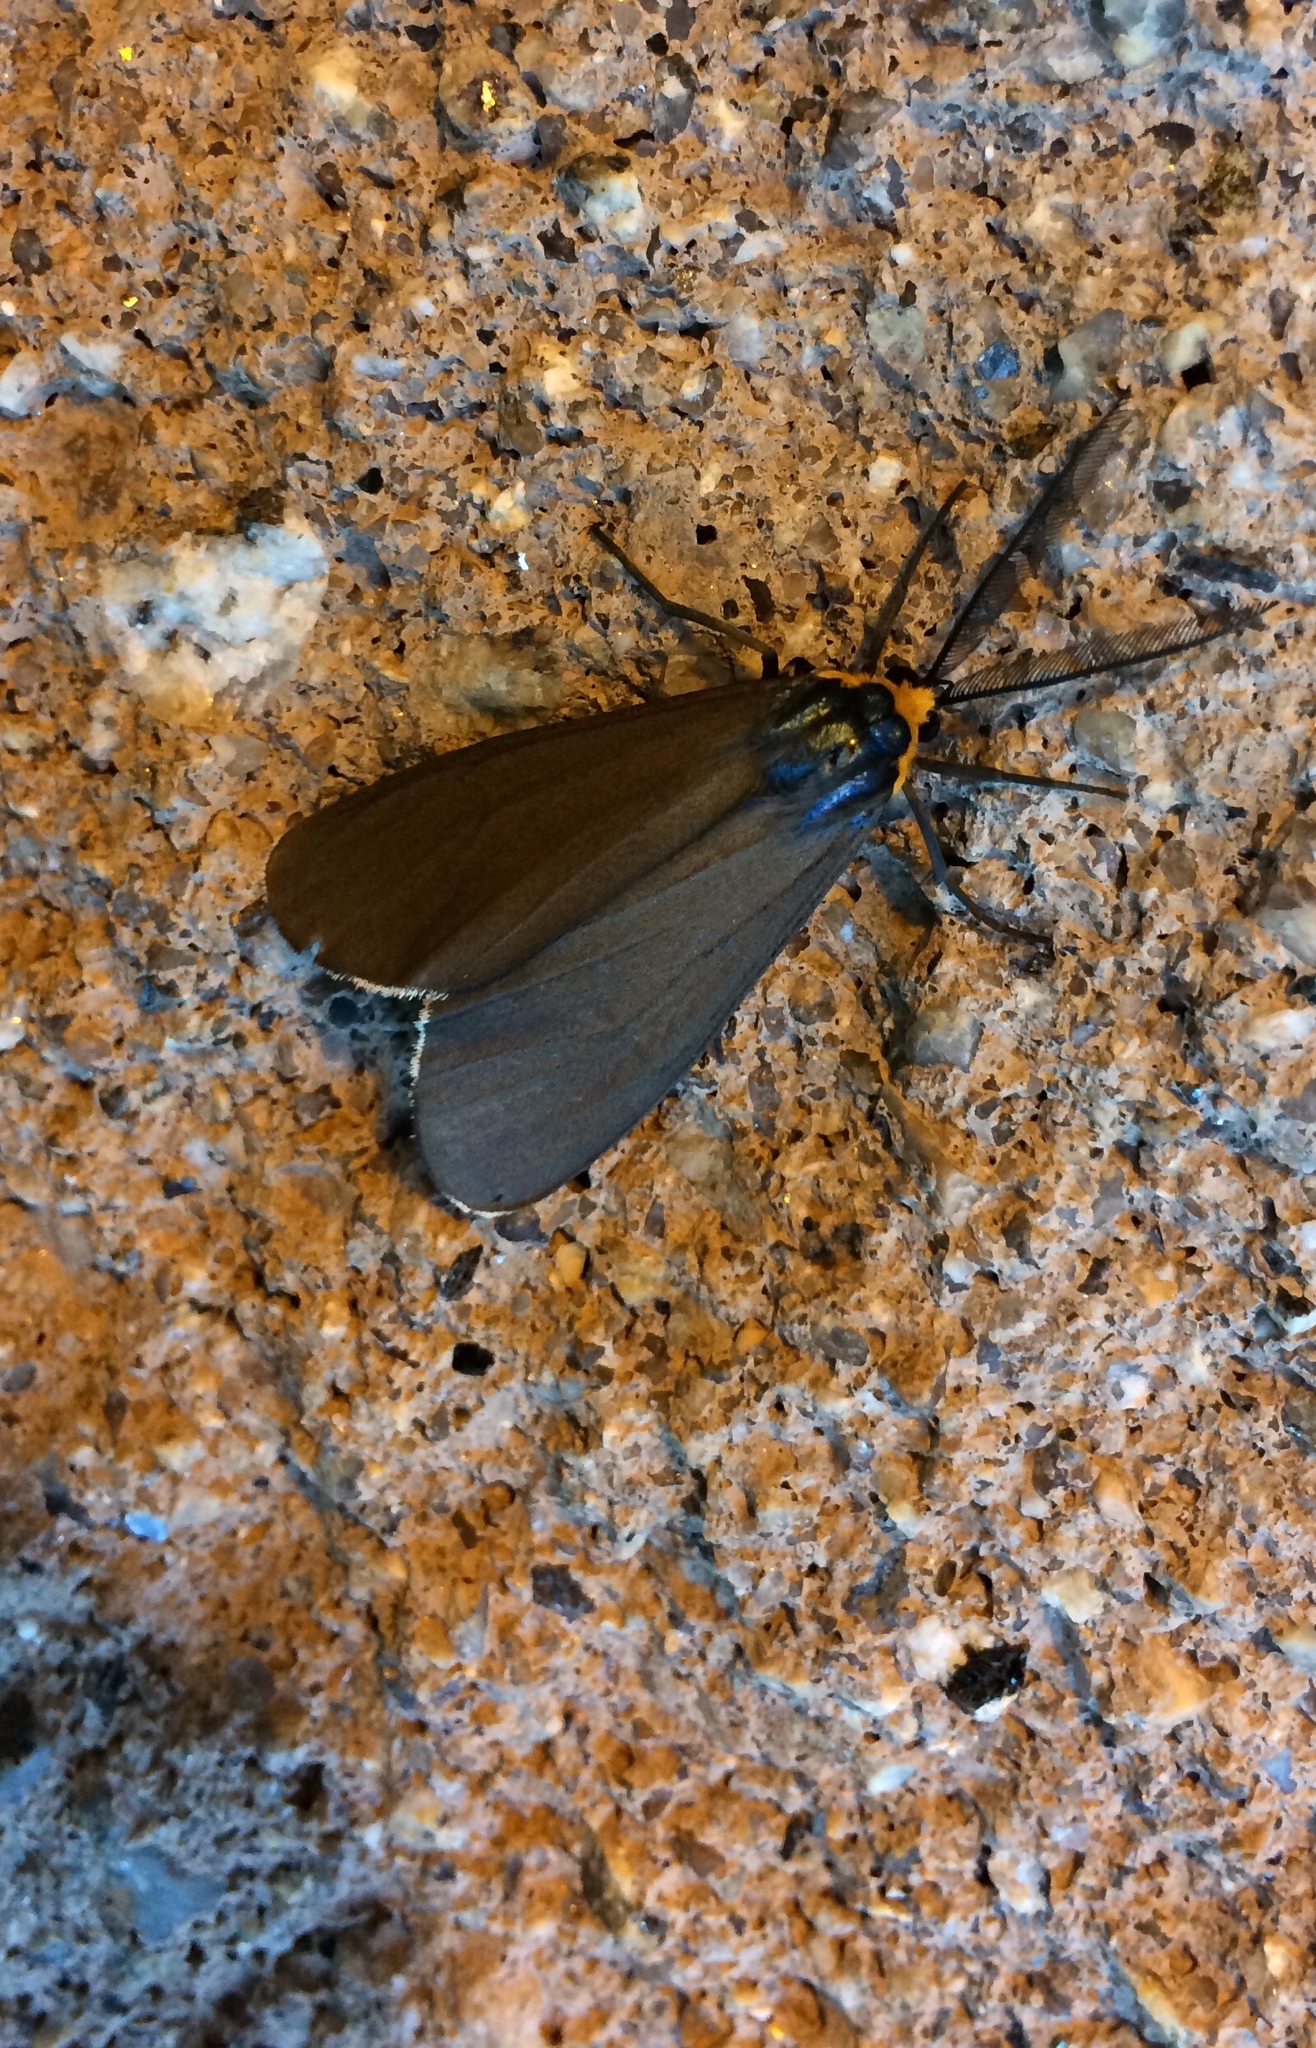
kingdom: Animalia
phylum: Arthropoda
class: Insecta
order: Lepidoptera
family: Erebidae
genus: Ctenucha
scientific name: Ctenucha virginica
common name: Virginia ctenucha moth
